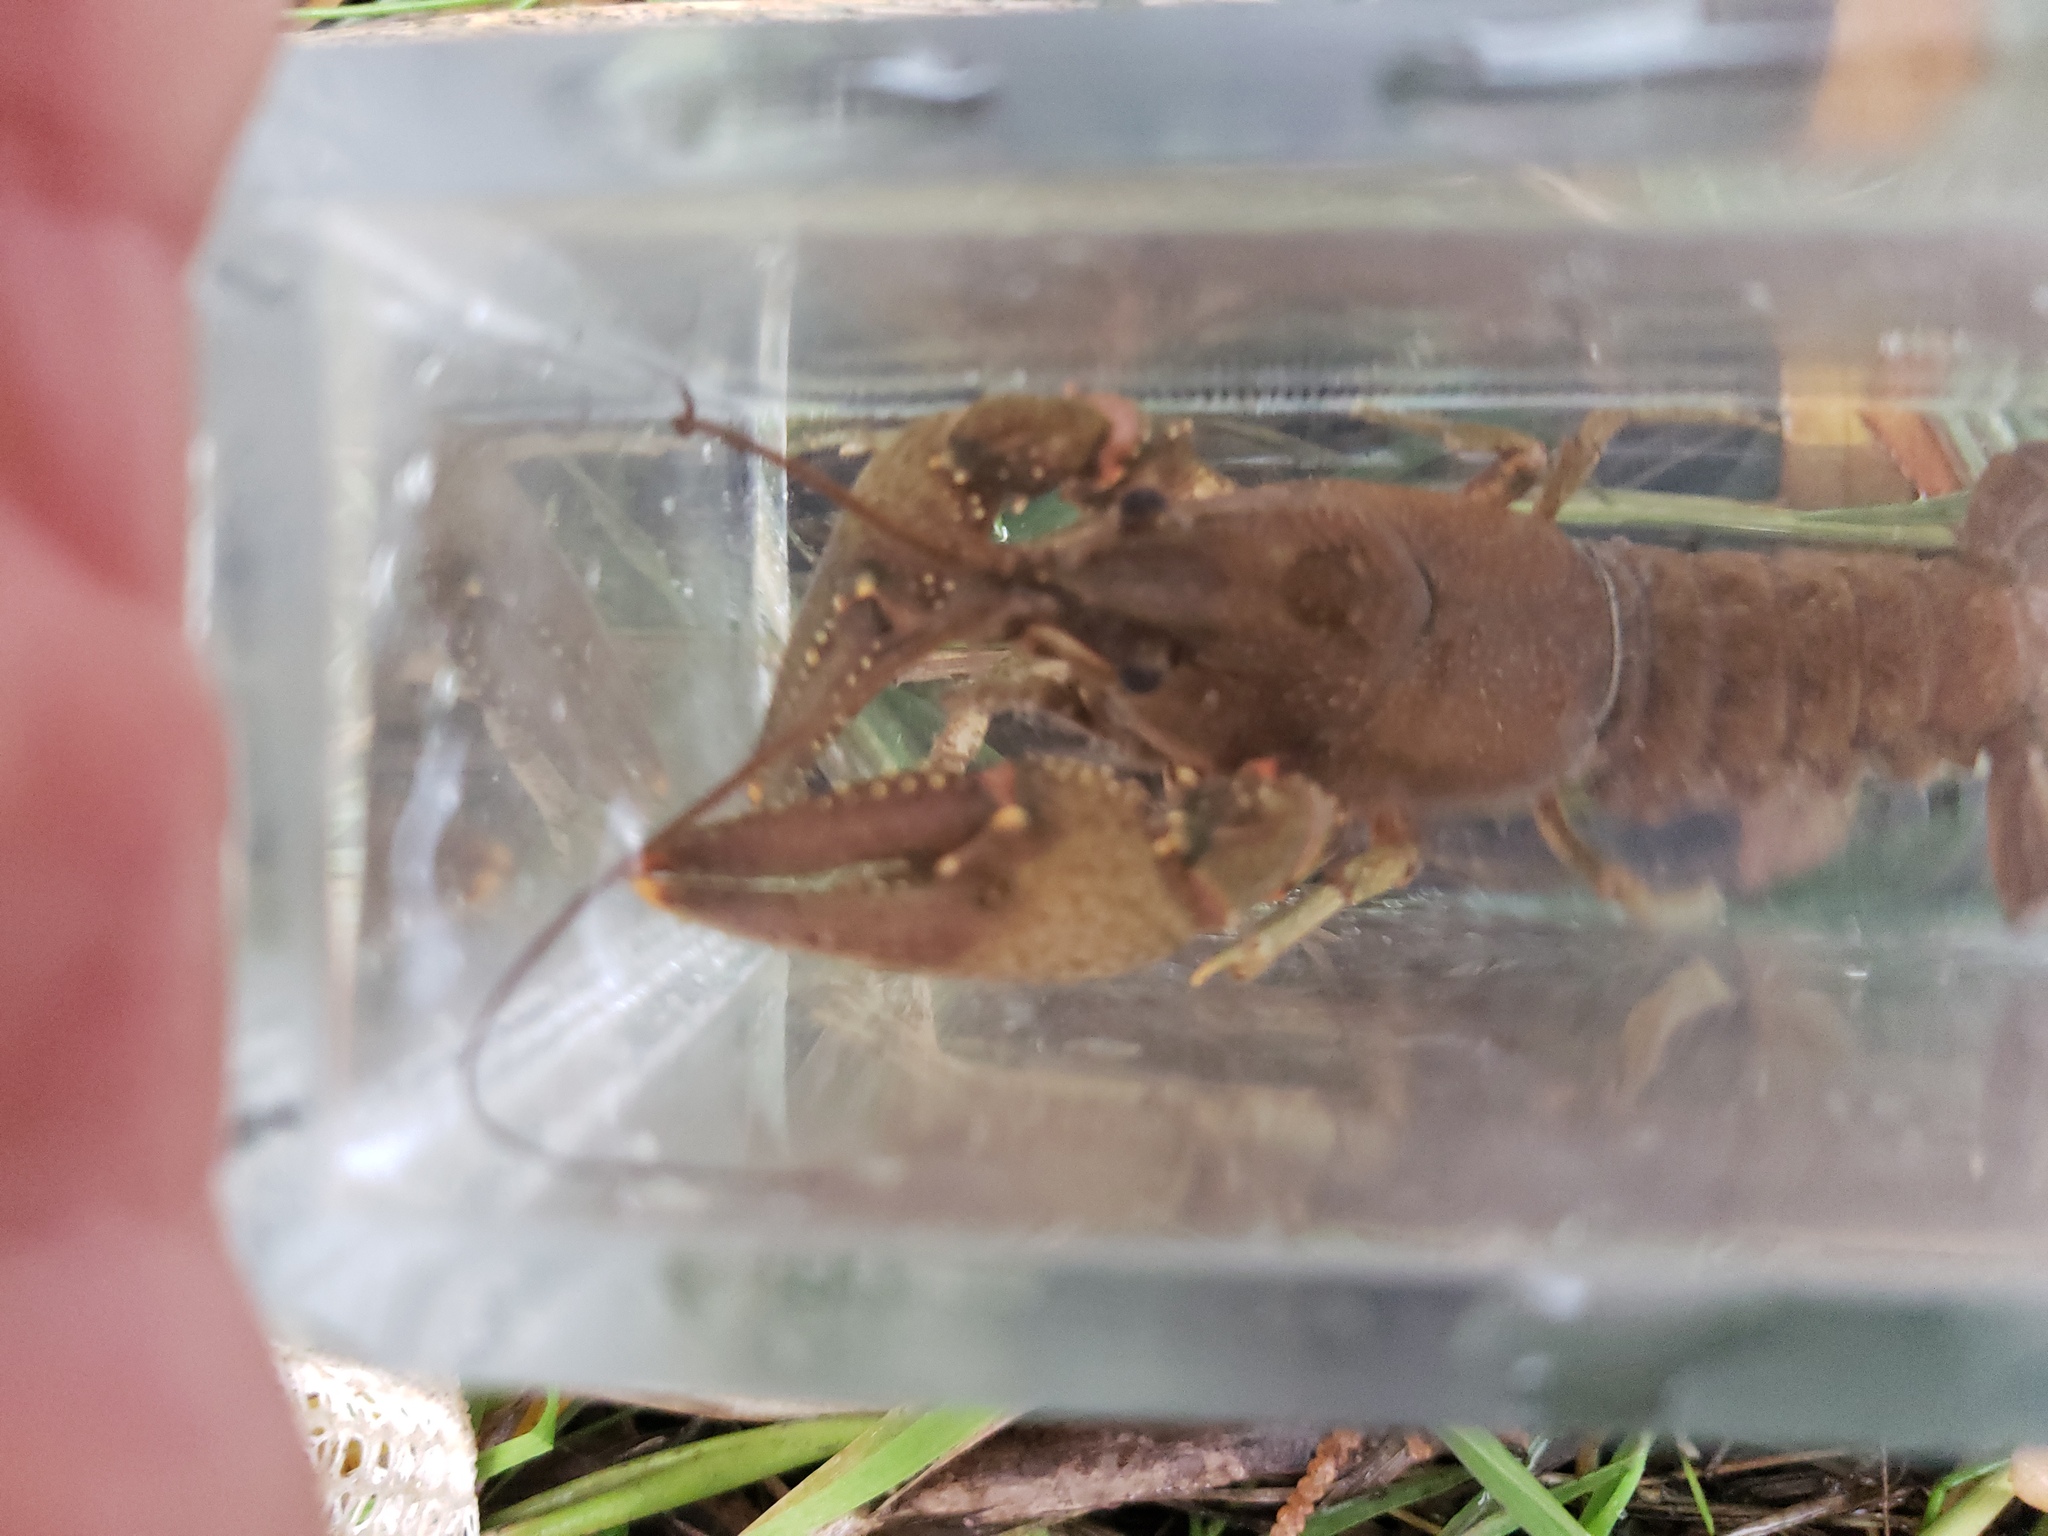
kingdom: Animalia
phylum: Arthropoda
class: Malacostraca
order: Decapoda
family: Cambaridae
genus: Faxonius
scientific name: Faxonius virilis
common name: Virile crayfish
